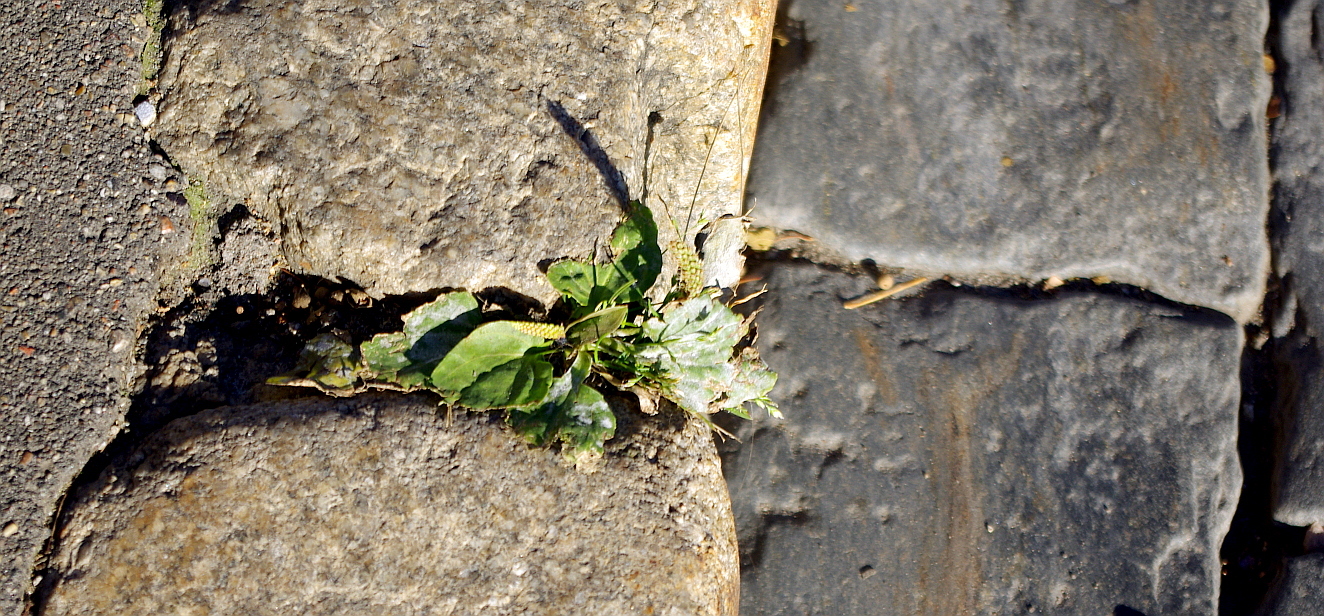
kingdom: Plantae
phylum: Tracheophyta
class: Magnoliopsida
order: Lamiales
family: Plantaginaceae
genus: Plantago
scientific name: Plantago major
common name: Common plantain
